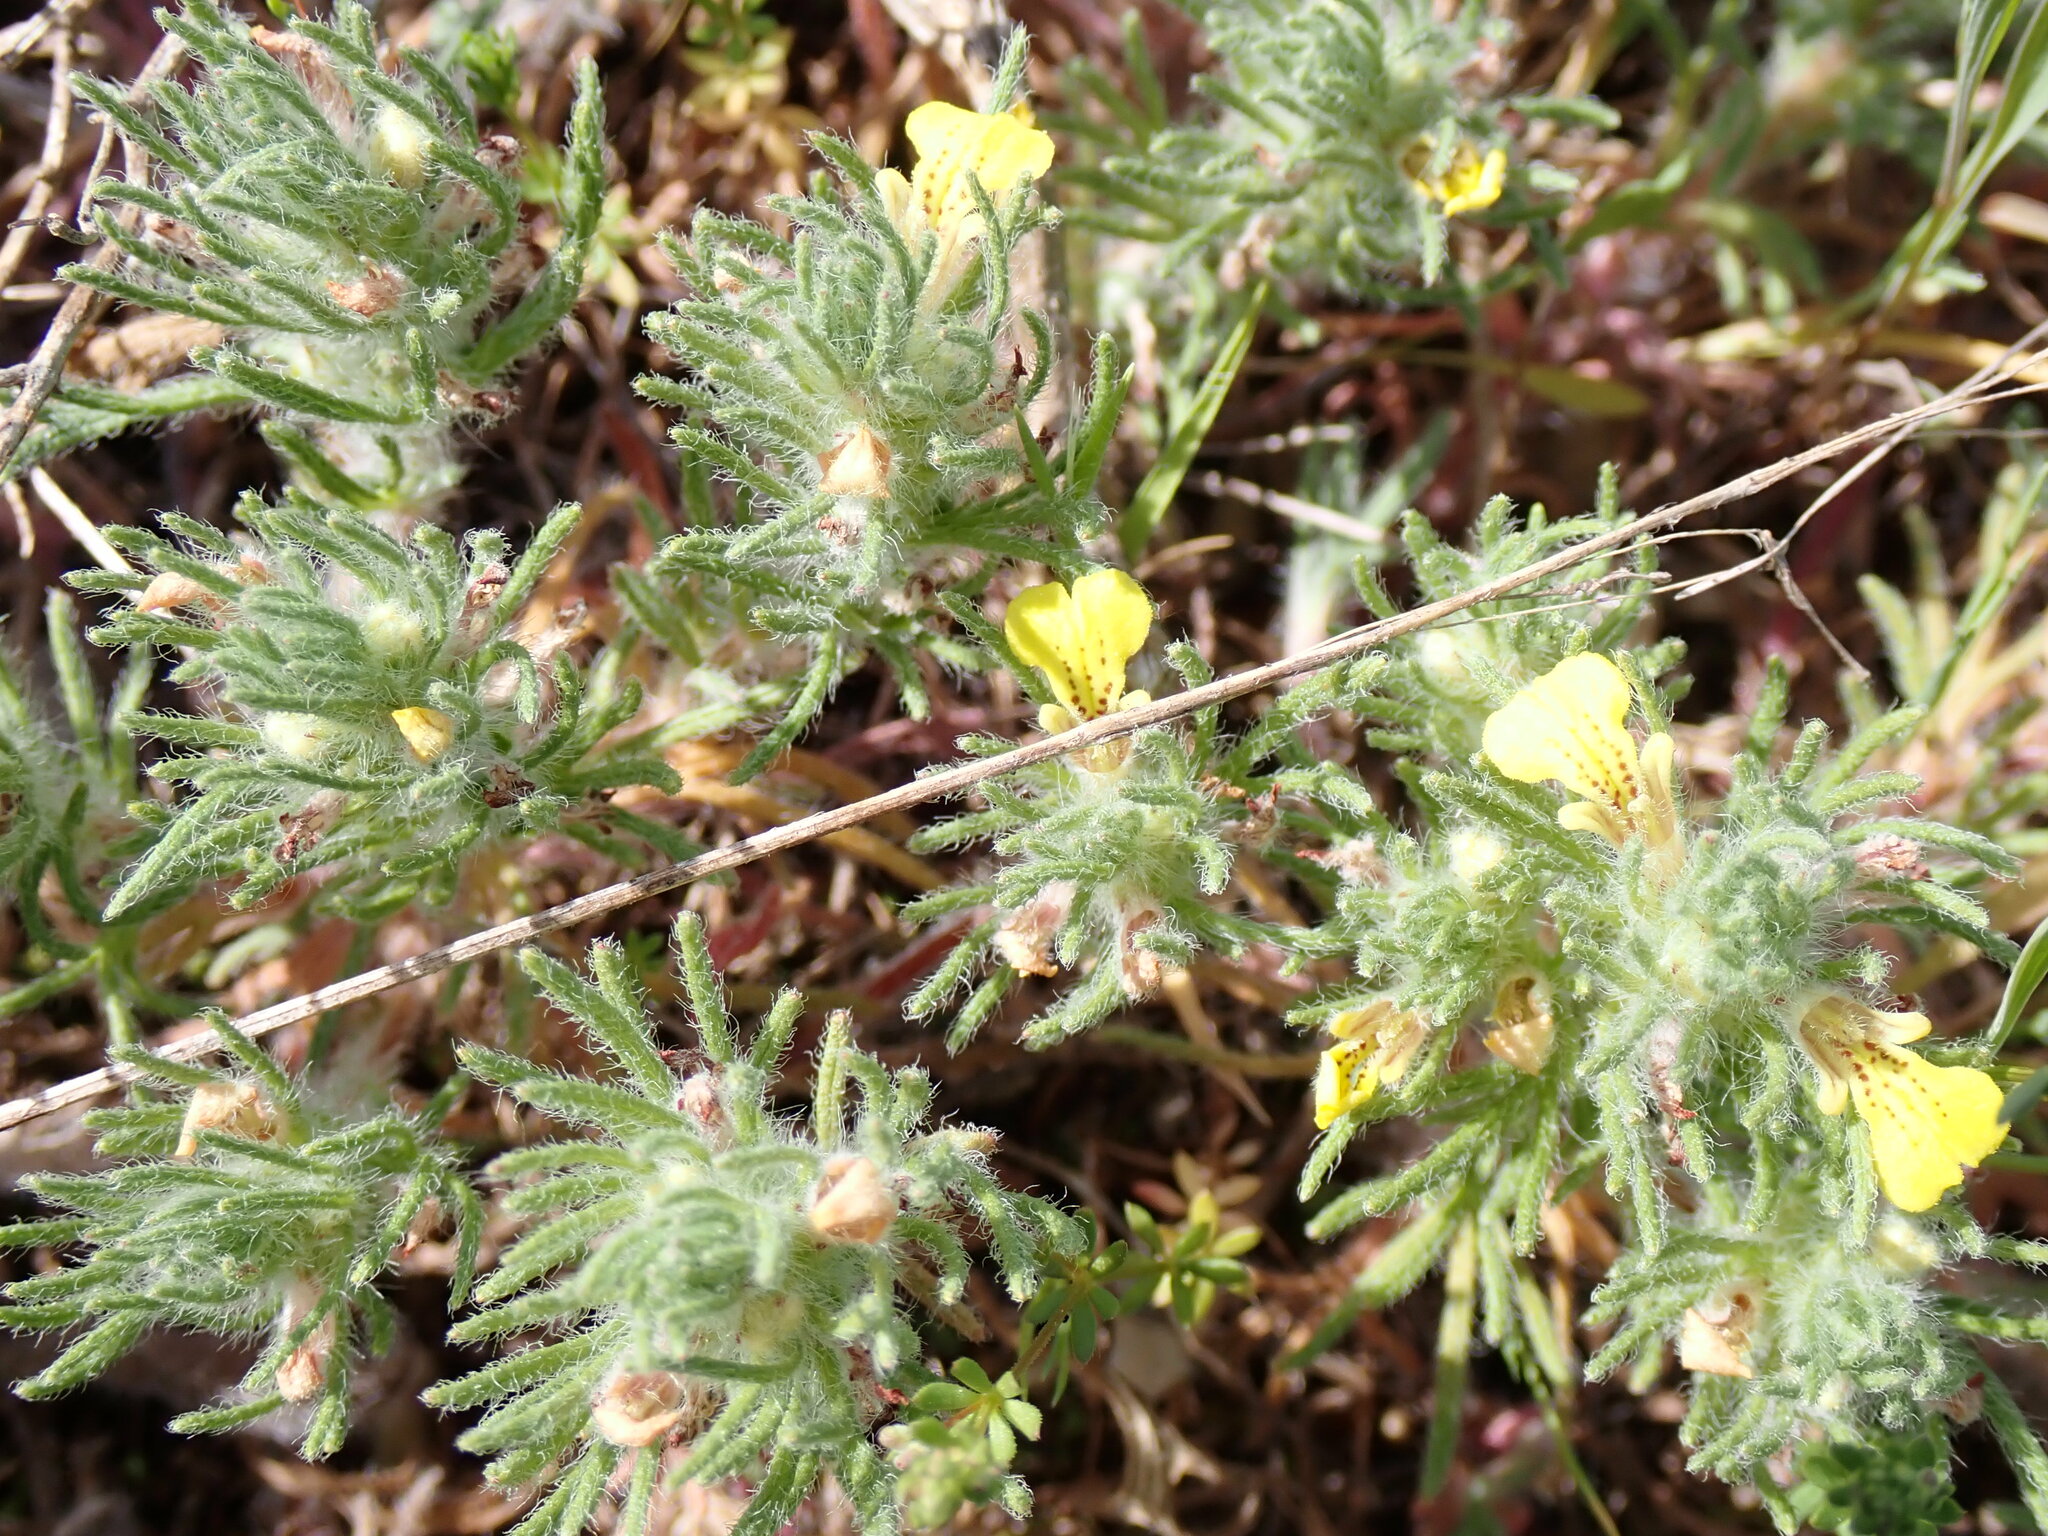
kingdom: Plantae
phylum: Tracheophyta
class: Magnoliopsida
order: Lamiales
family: Lamiaceae
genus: Ajuga
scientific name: Ajuga chamaepitys
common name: Ground-pine
